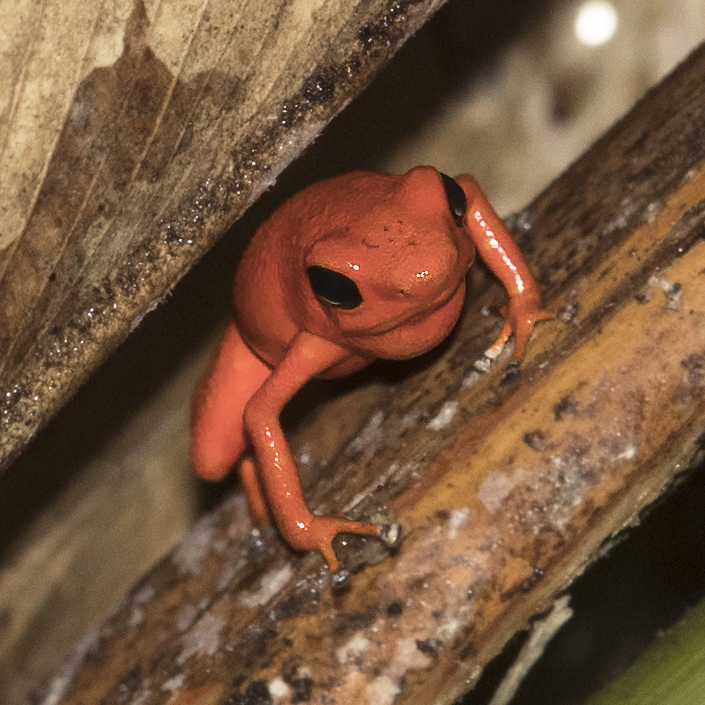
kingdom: Animalia
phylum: Chordata
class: Amphibia
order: Anura
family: Dendrobatidae
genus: Oophaga
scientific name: Oophaga pumilio
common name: Flaming poison frog
